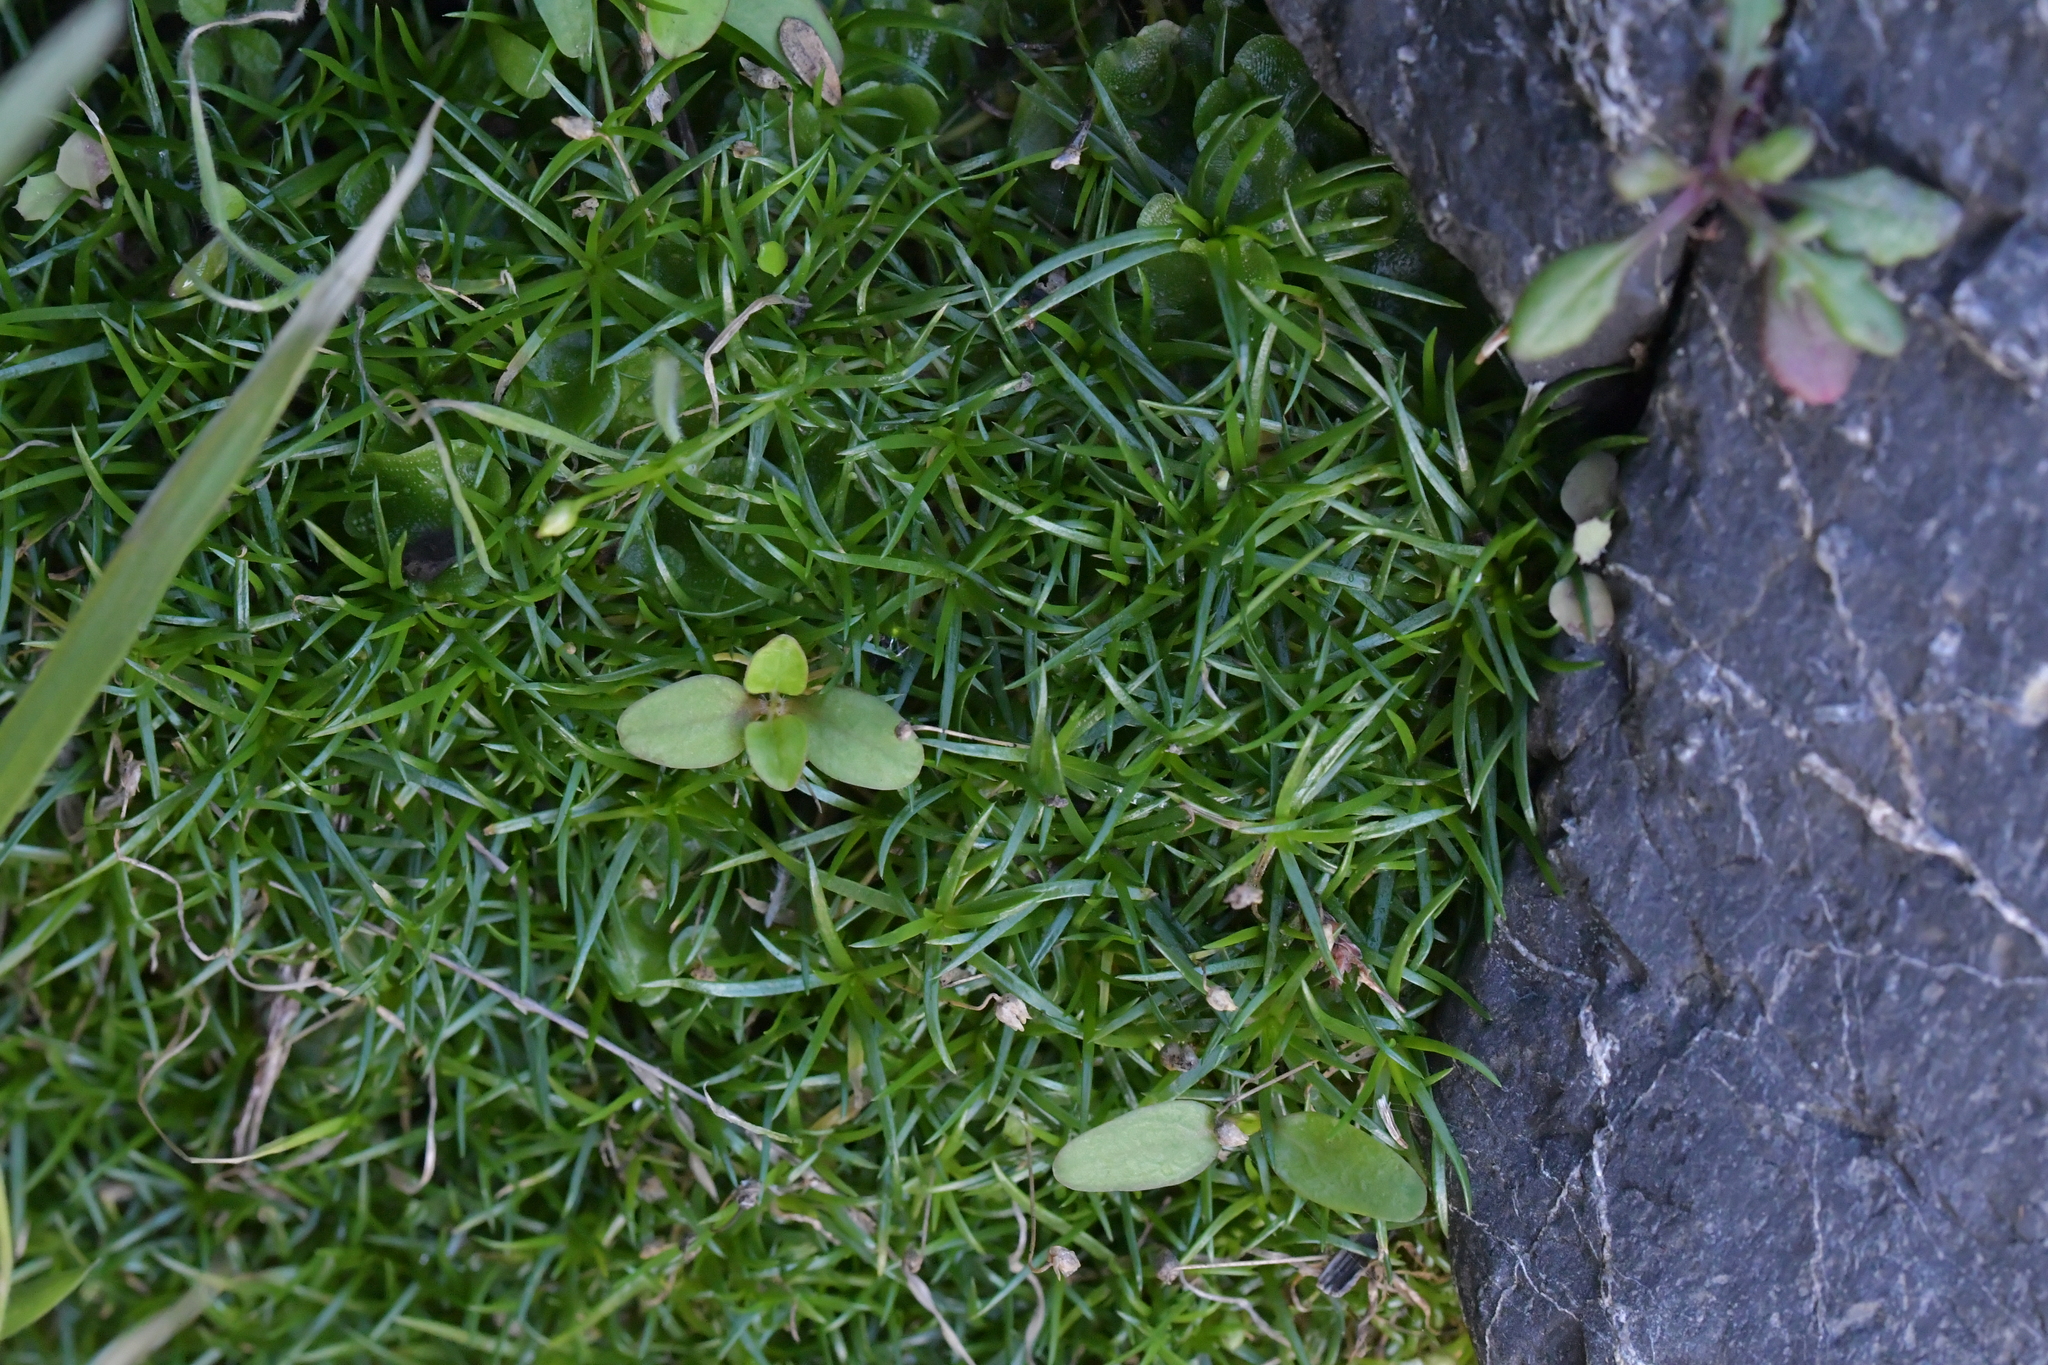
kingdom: Plantae
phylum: Tracheophyta
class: Magnoliopsida
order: Caryophyllales
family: Caryophyllaceae
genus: Sagina
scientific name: Sagina procumbens
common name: Procumbent pearlwort
